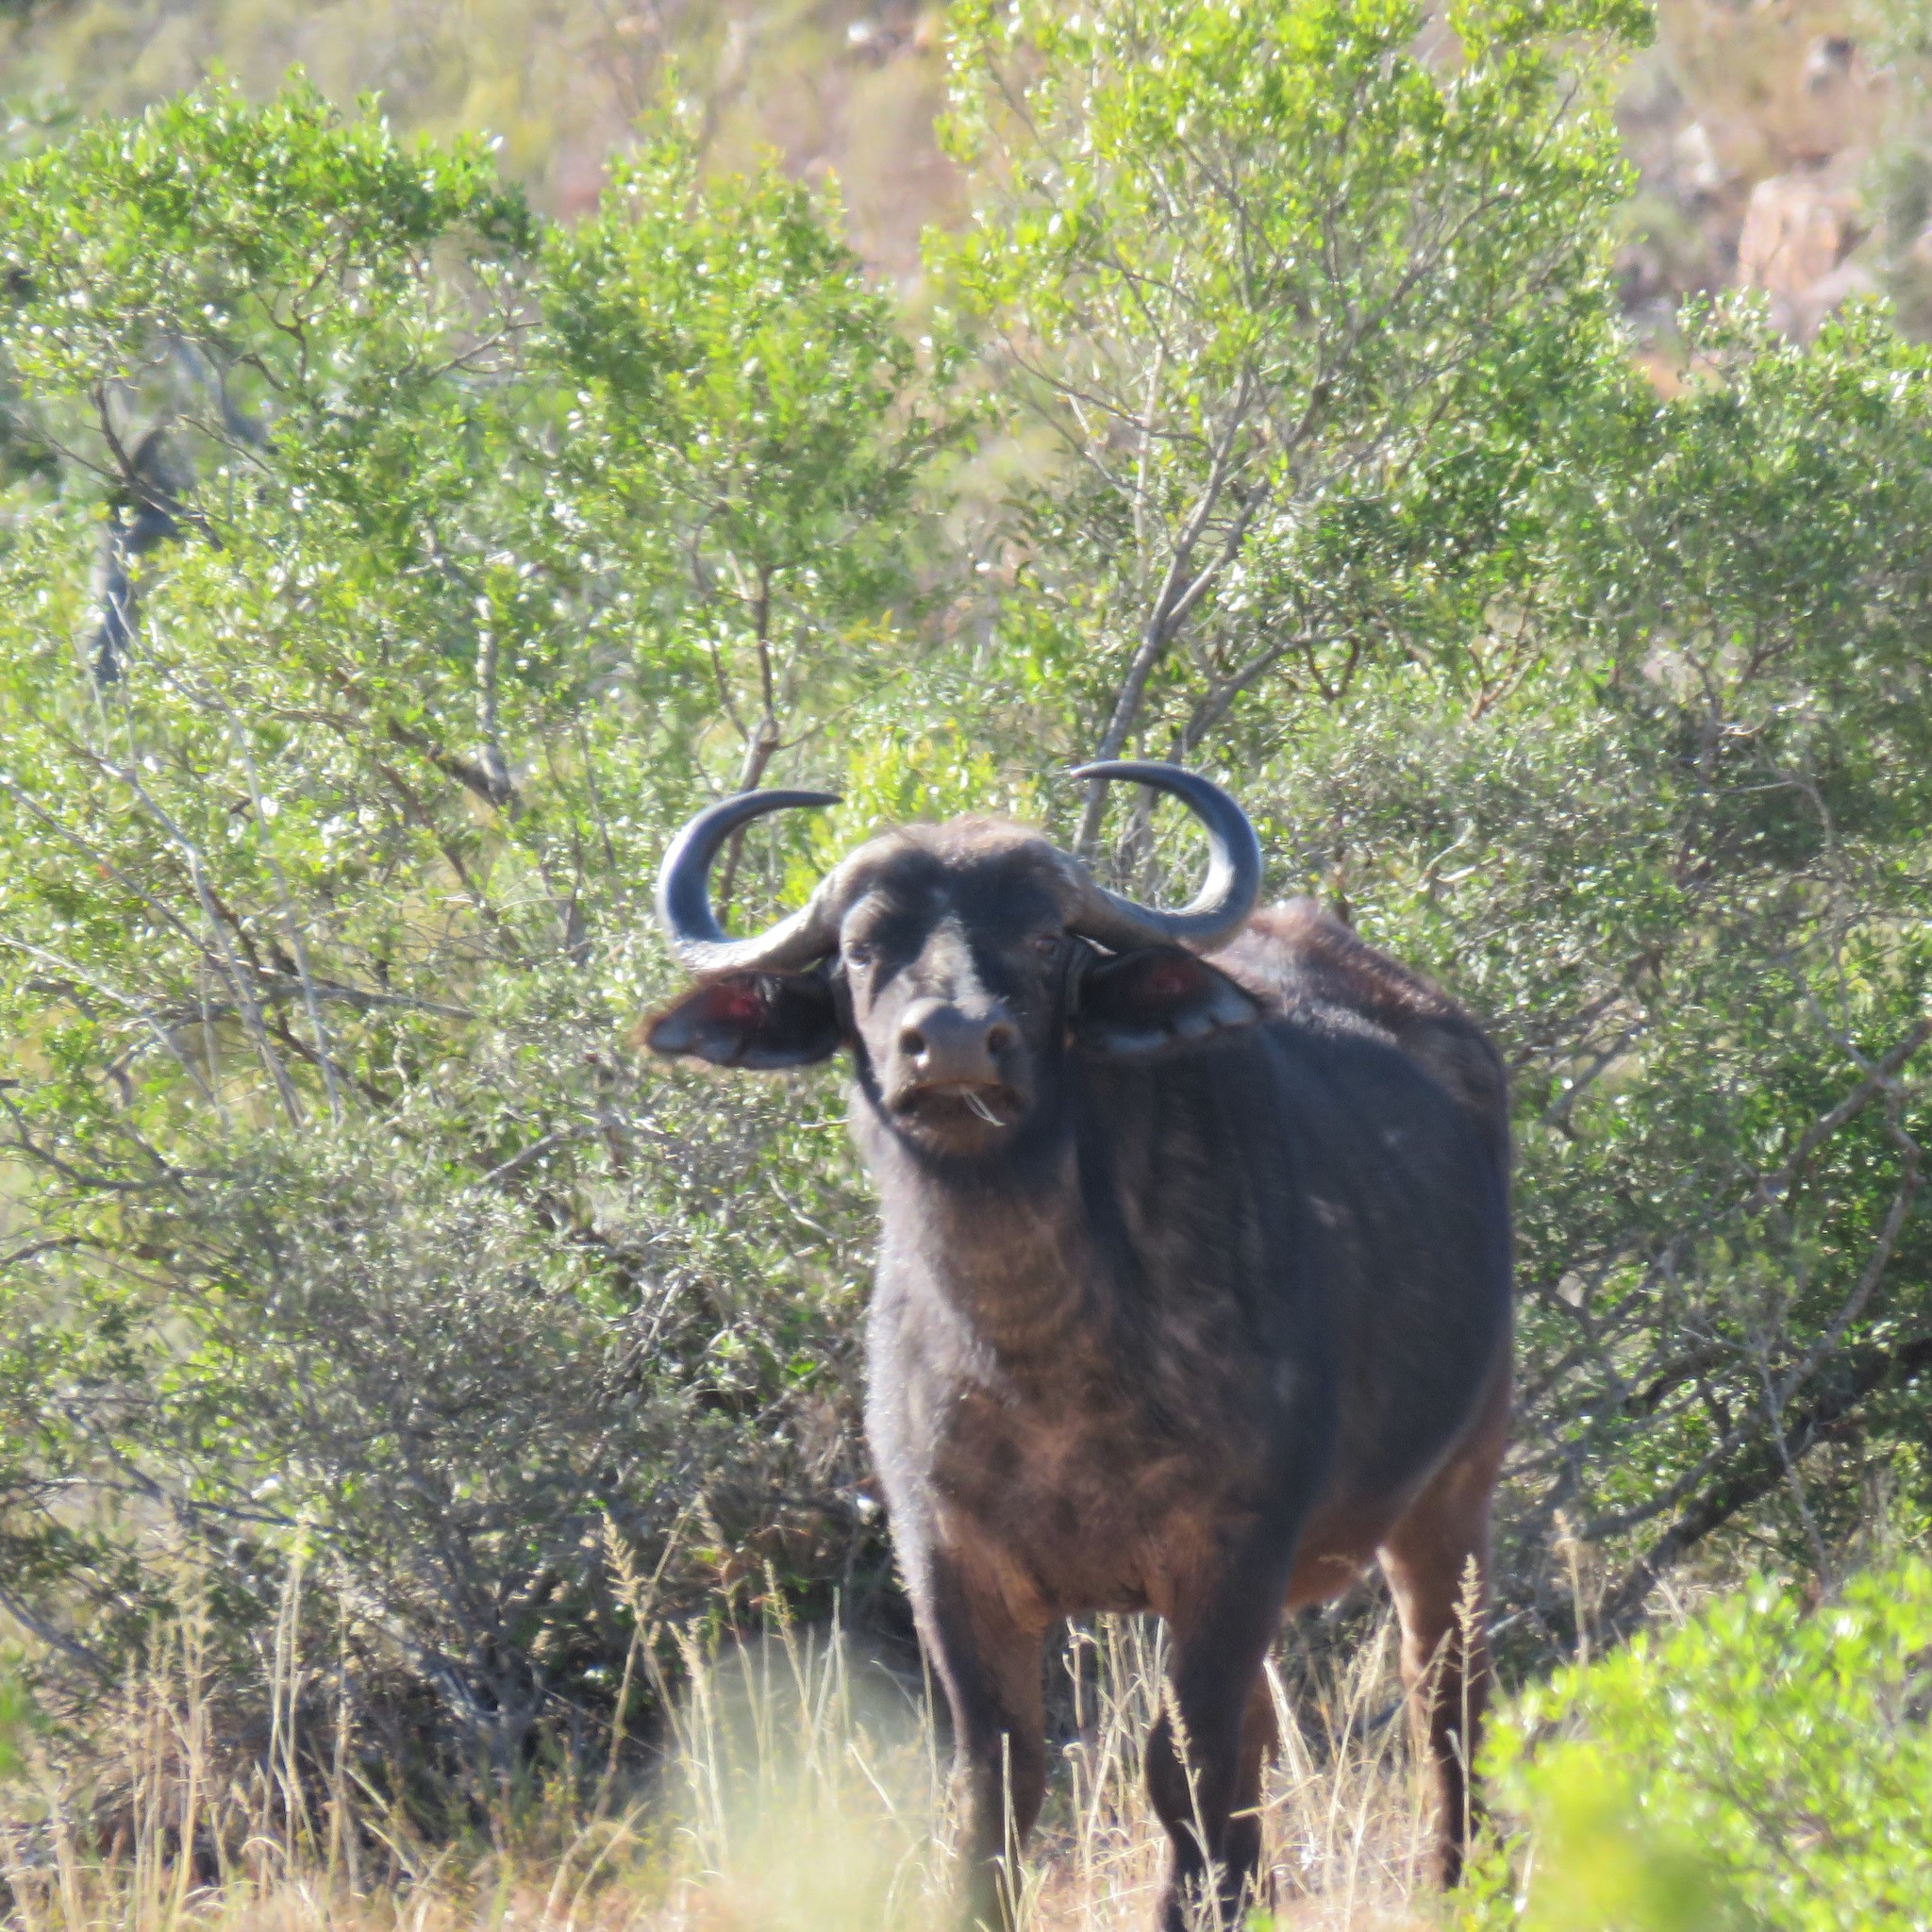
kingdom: Animalia
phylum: Chordata
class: Mammalia
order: Artiodactyla
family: Bovidae
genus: Syncerus
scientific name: Syncerus caffer
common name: African buffalo
